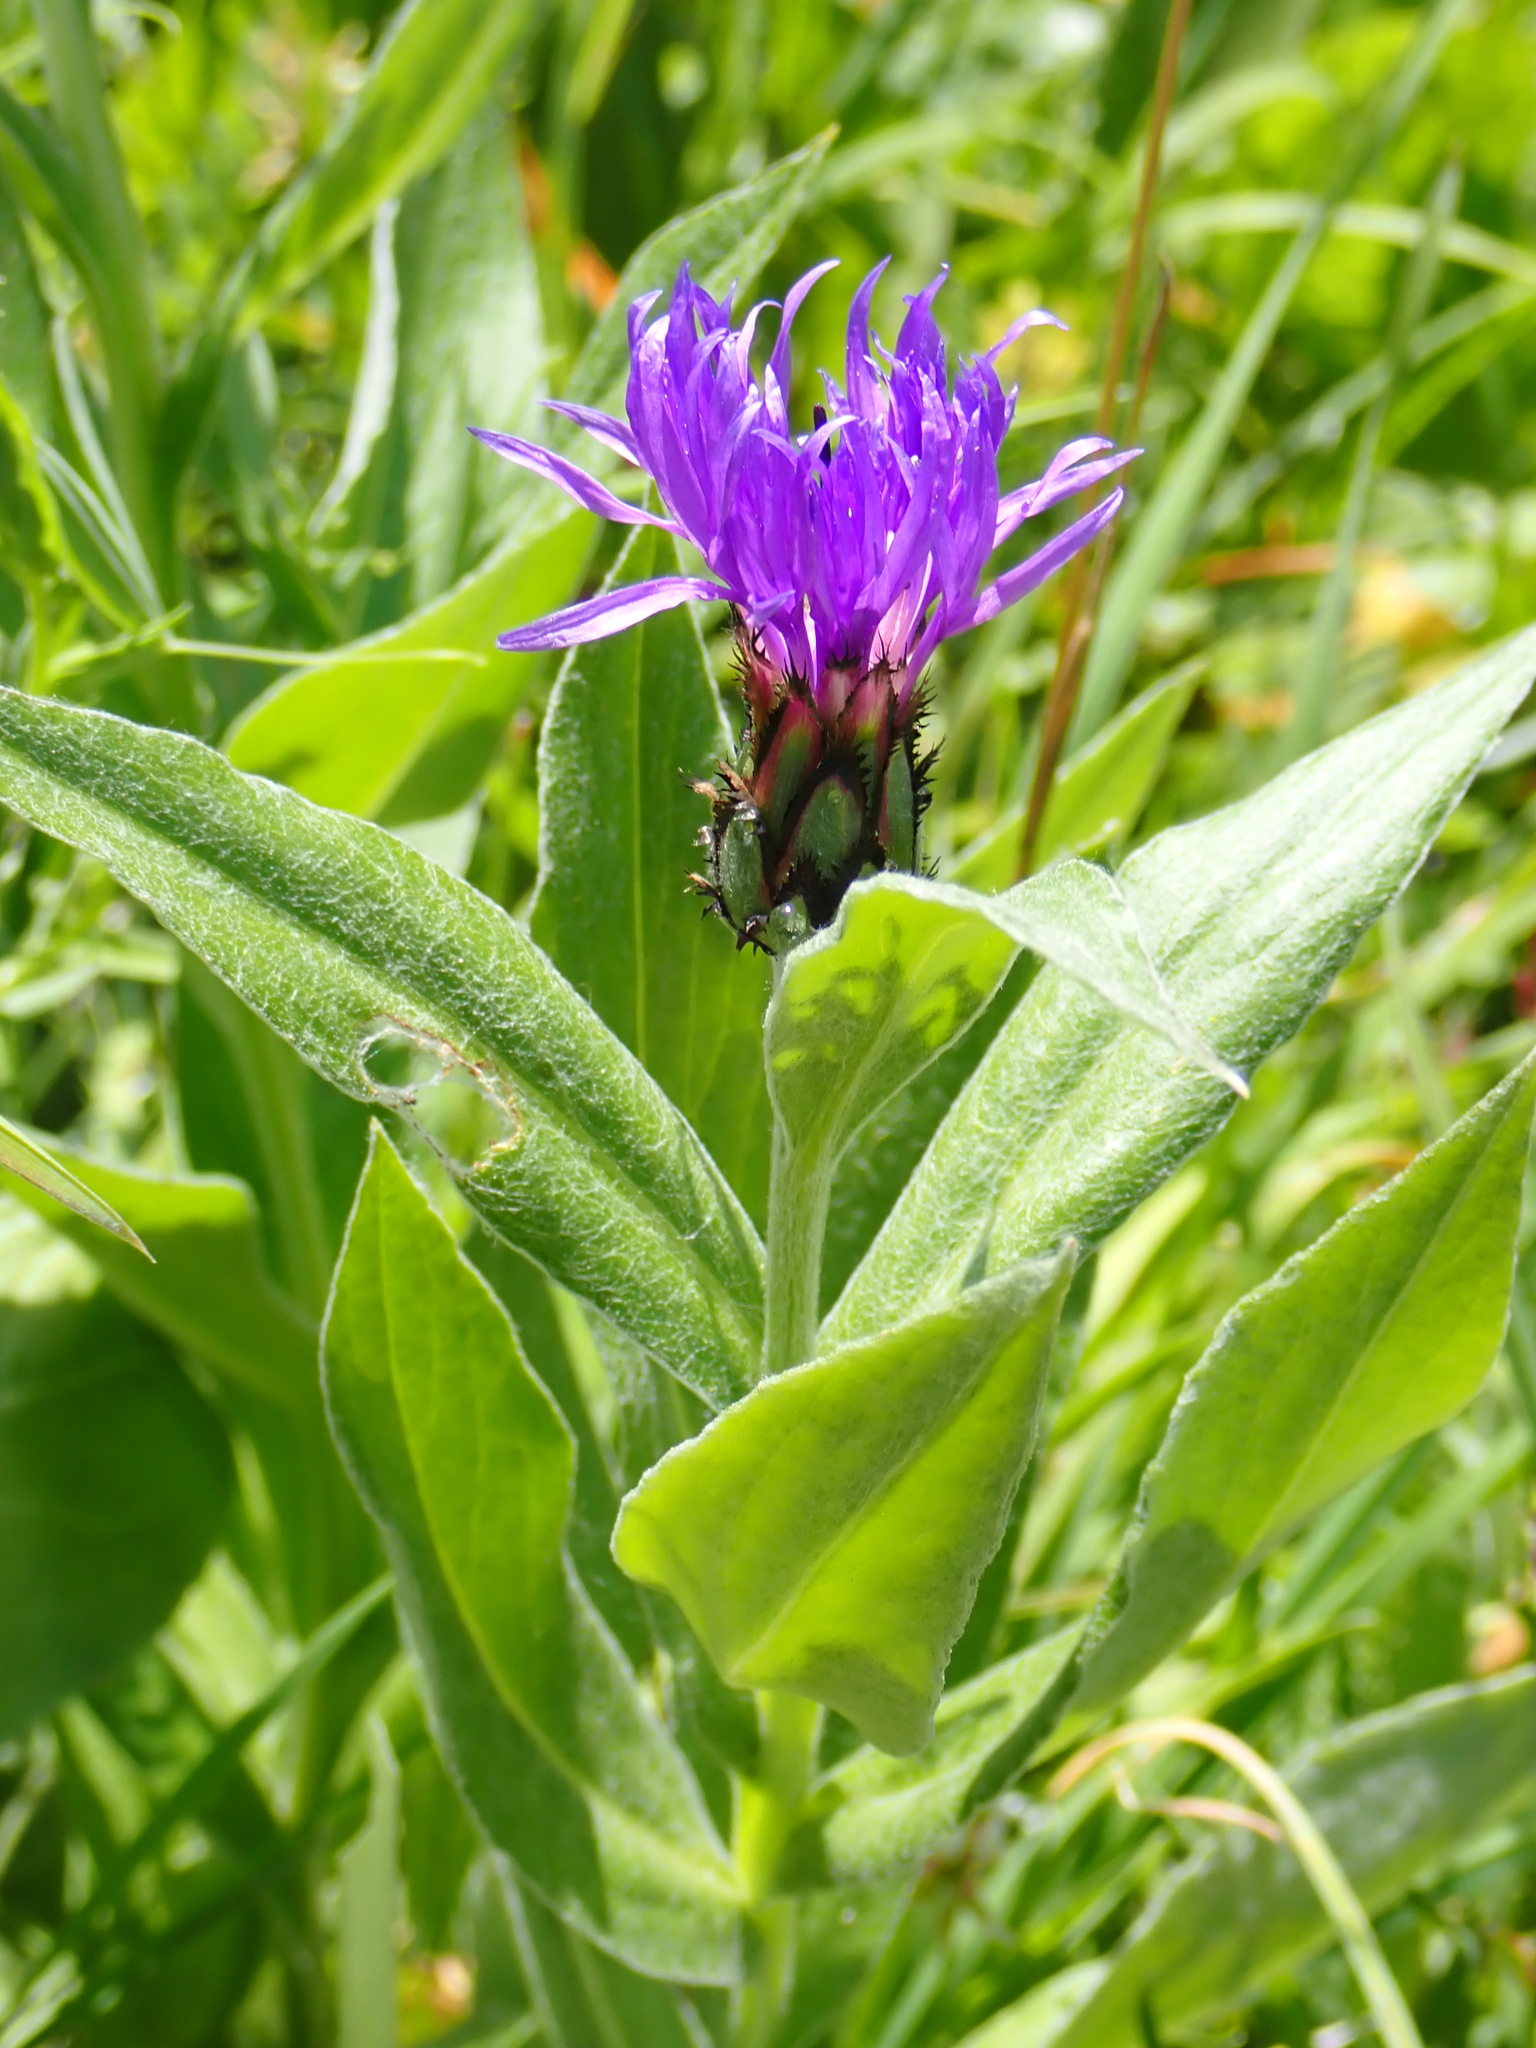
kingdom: Plantae
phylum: Tracheophyta
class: Magnoliopsida
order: Asterales
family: Asteraceae
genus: Centaurea
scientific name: Centaurea montana
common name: Perennial cornflower
